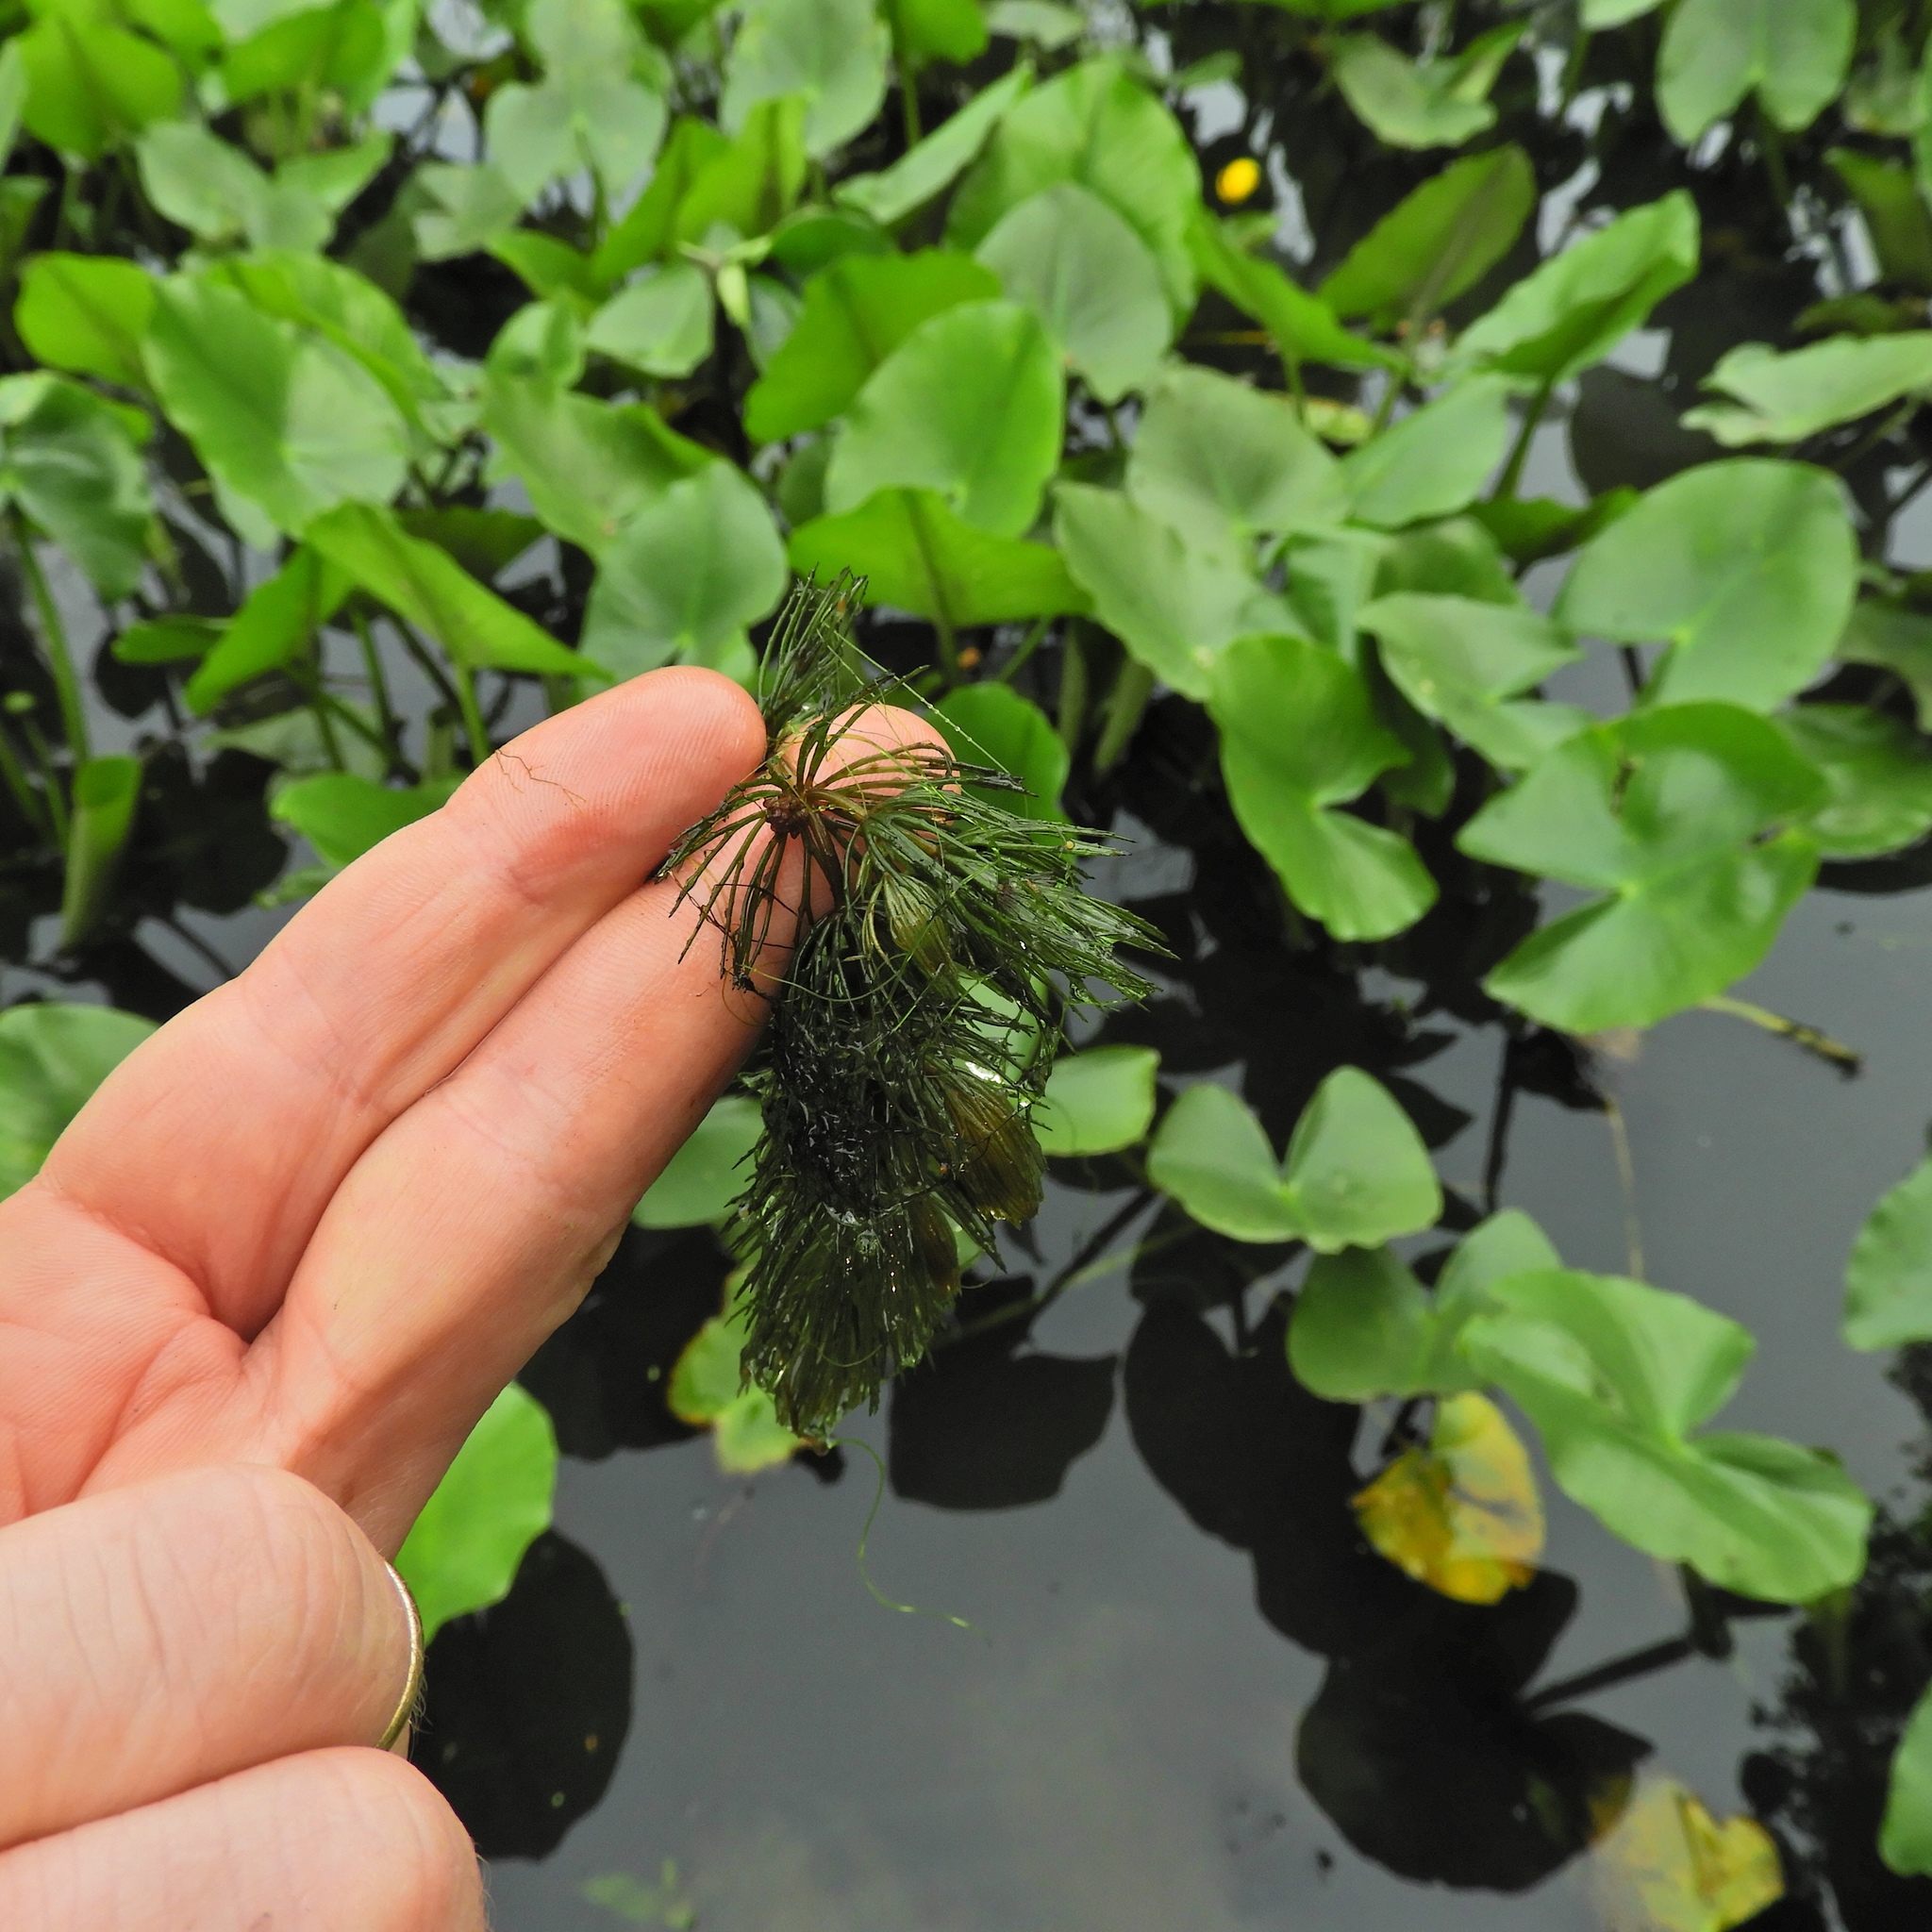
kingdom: Plantae
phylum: Tracheophyta
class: Magnoliopsida
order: Ceratophyllales
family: Ceratophyllaceae
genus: Ceratophyllum
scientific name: Ceratophyllum demersum
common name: Rigid hornwort
